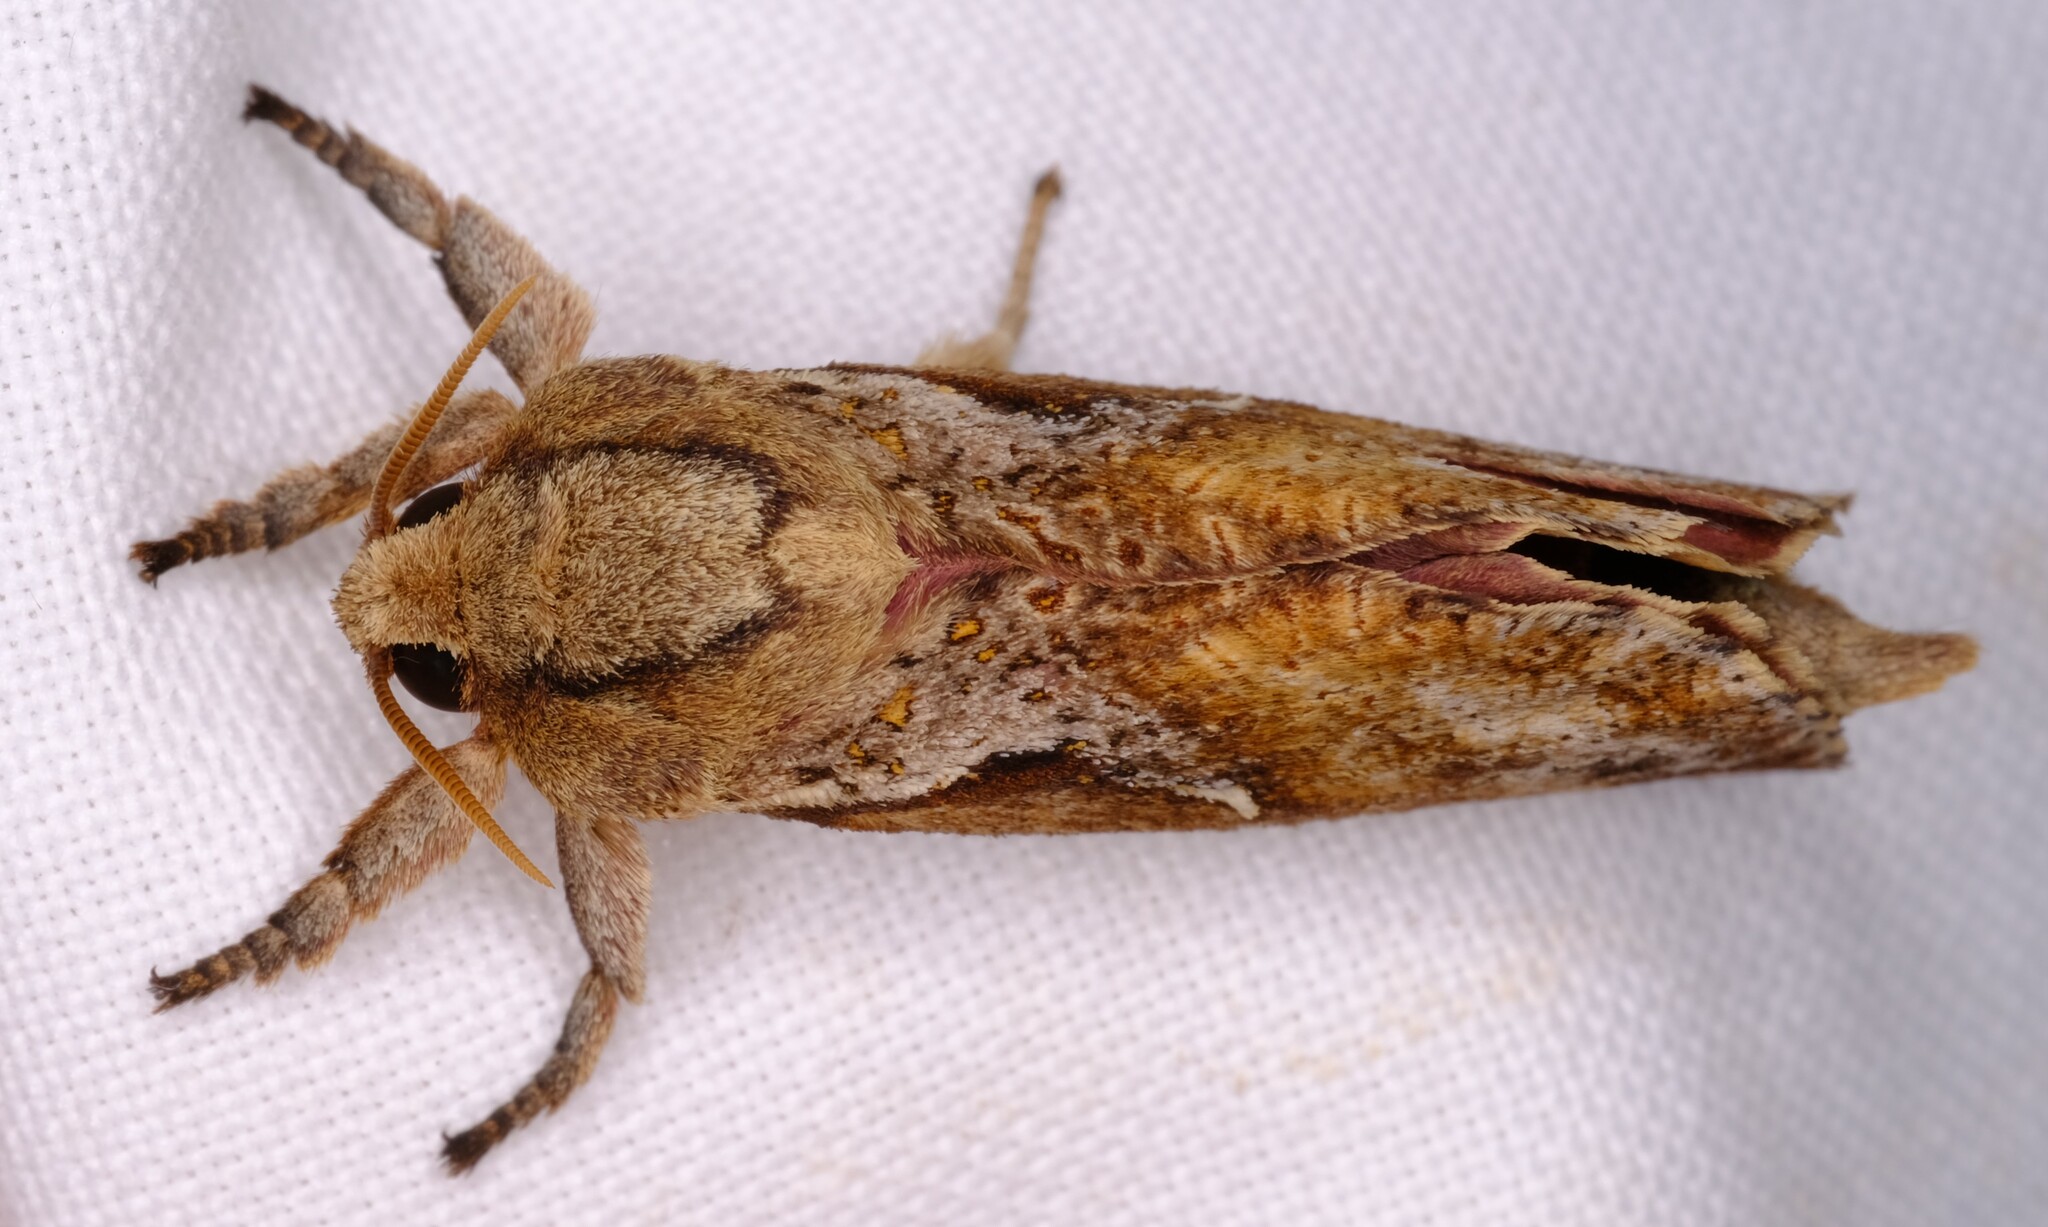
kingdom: Animalia
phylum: Arthropoda
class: Insecta
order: Lepidoptera
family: Hepialidae
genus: Elhamma
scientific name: Elhamma australasiae
